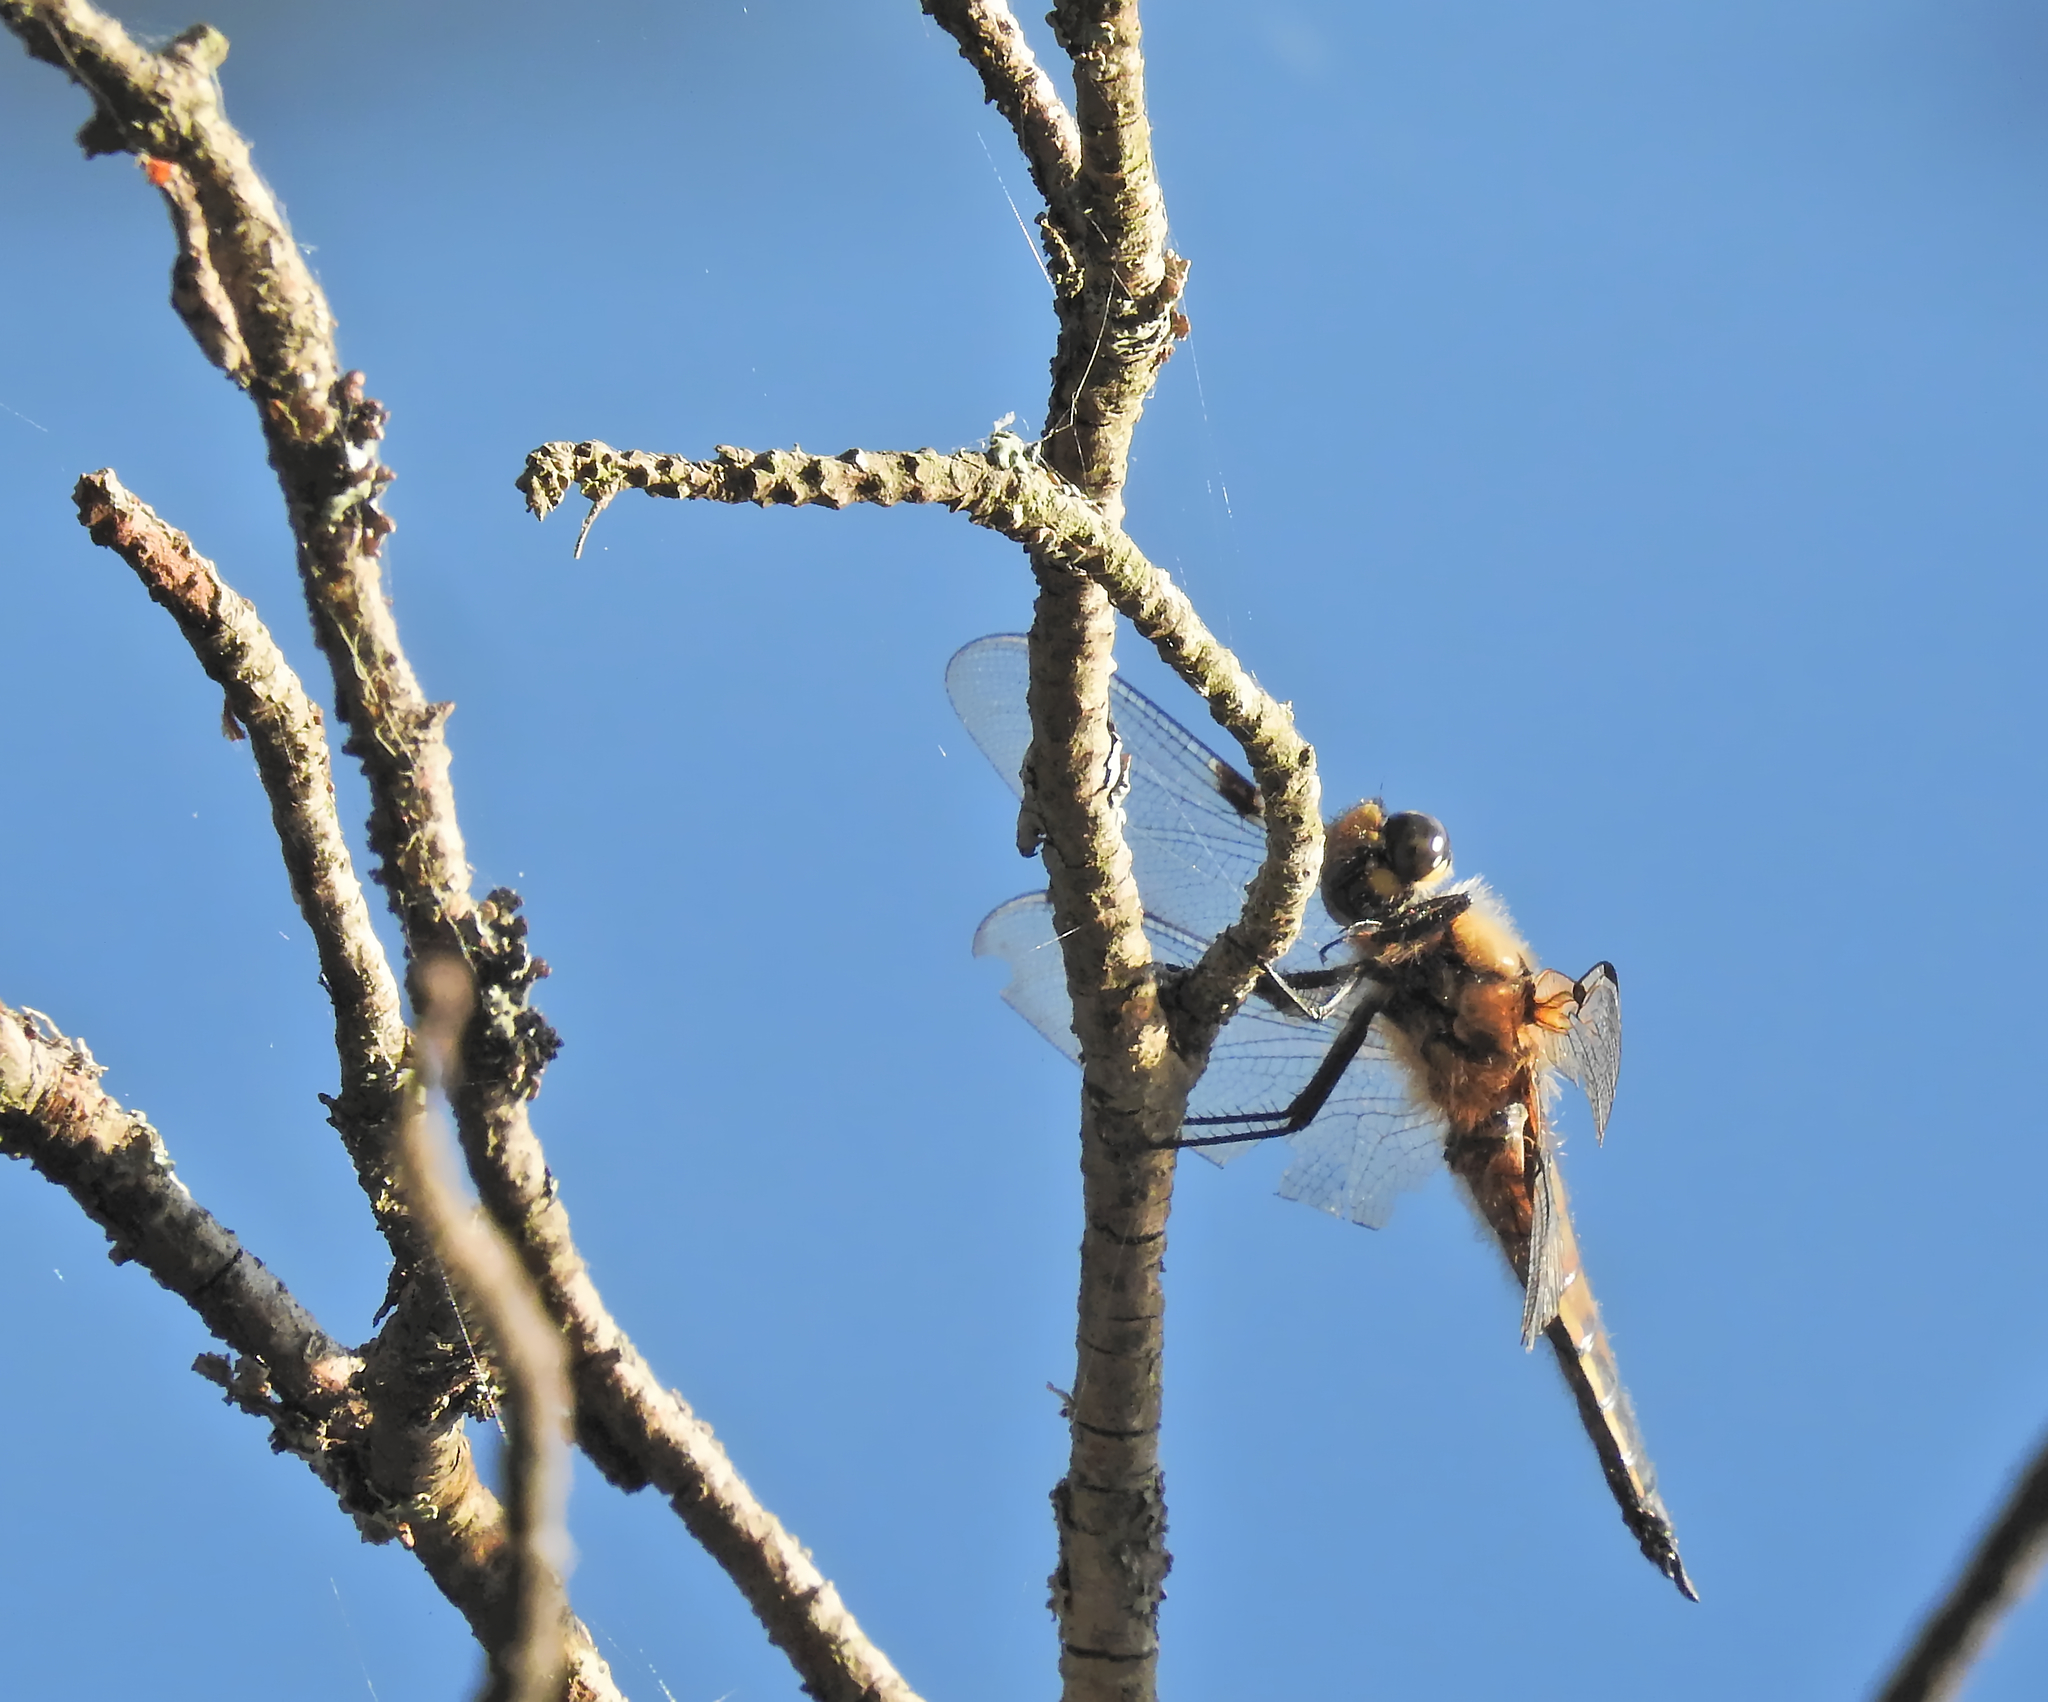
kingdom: Animalia
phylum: Arthropoda
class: Insecta
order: Odonata
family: Libellulidae
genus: Libellula
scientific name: Libellula quadrimaculata
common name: Four-spotted chaser
